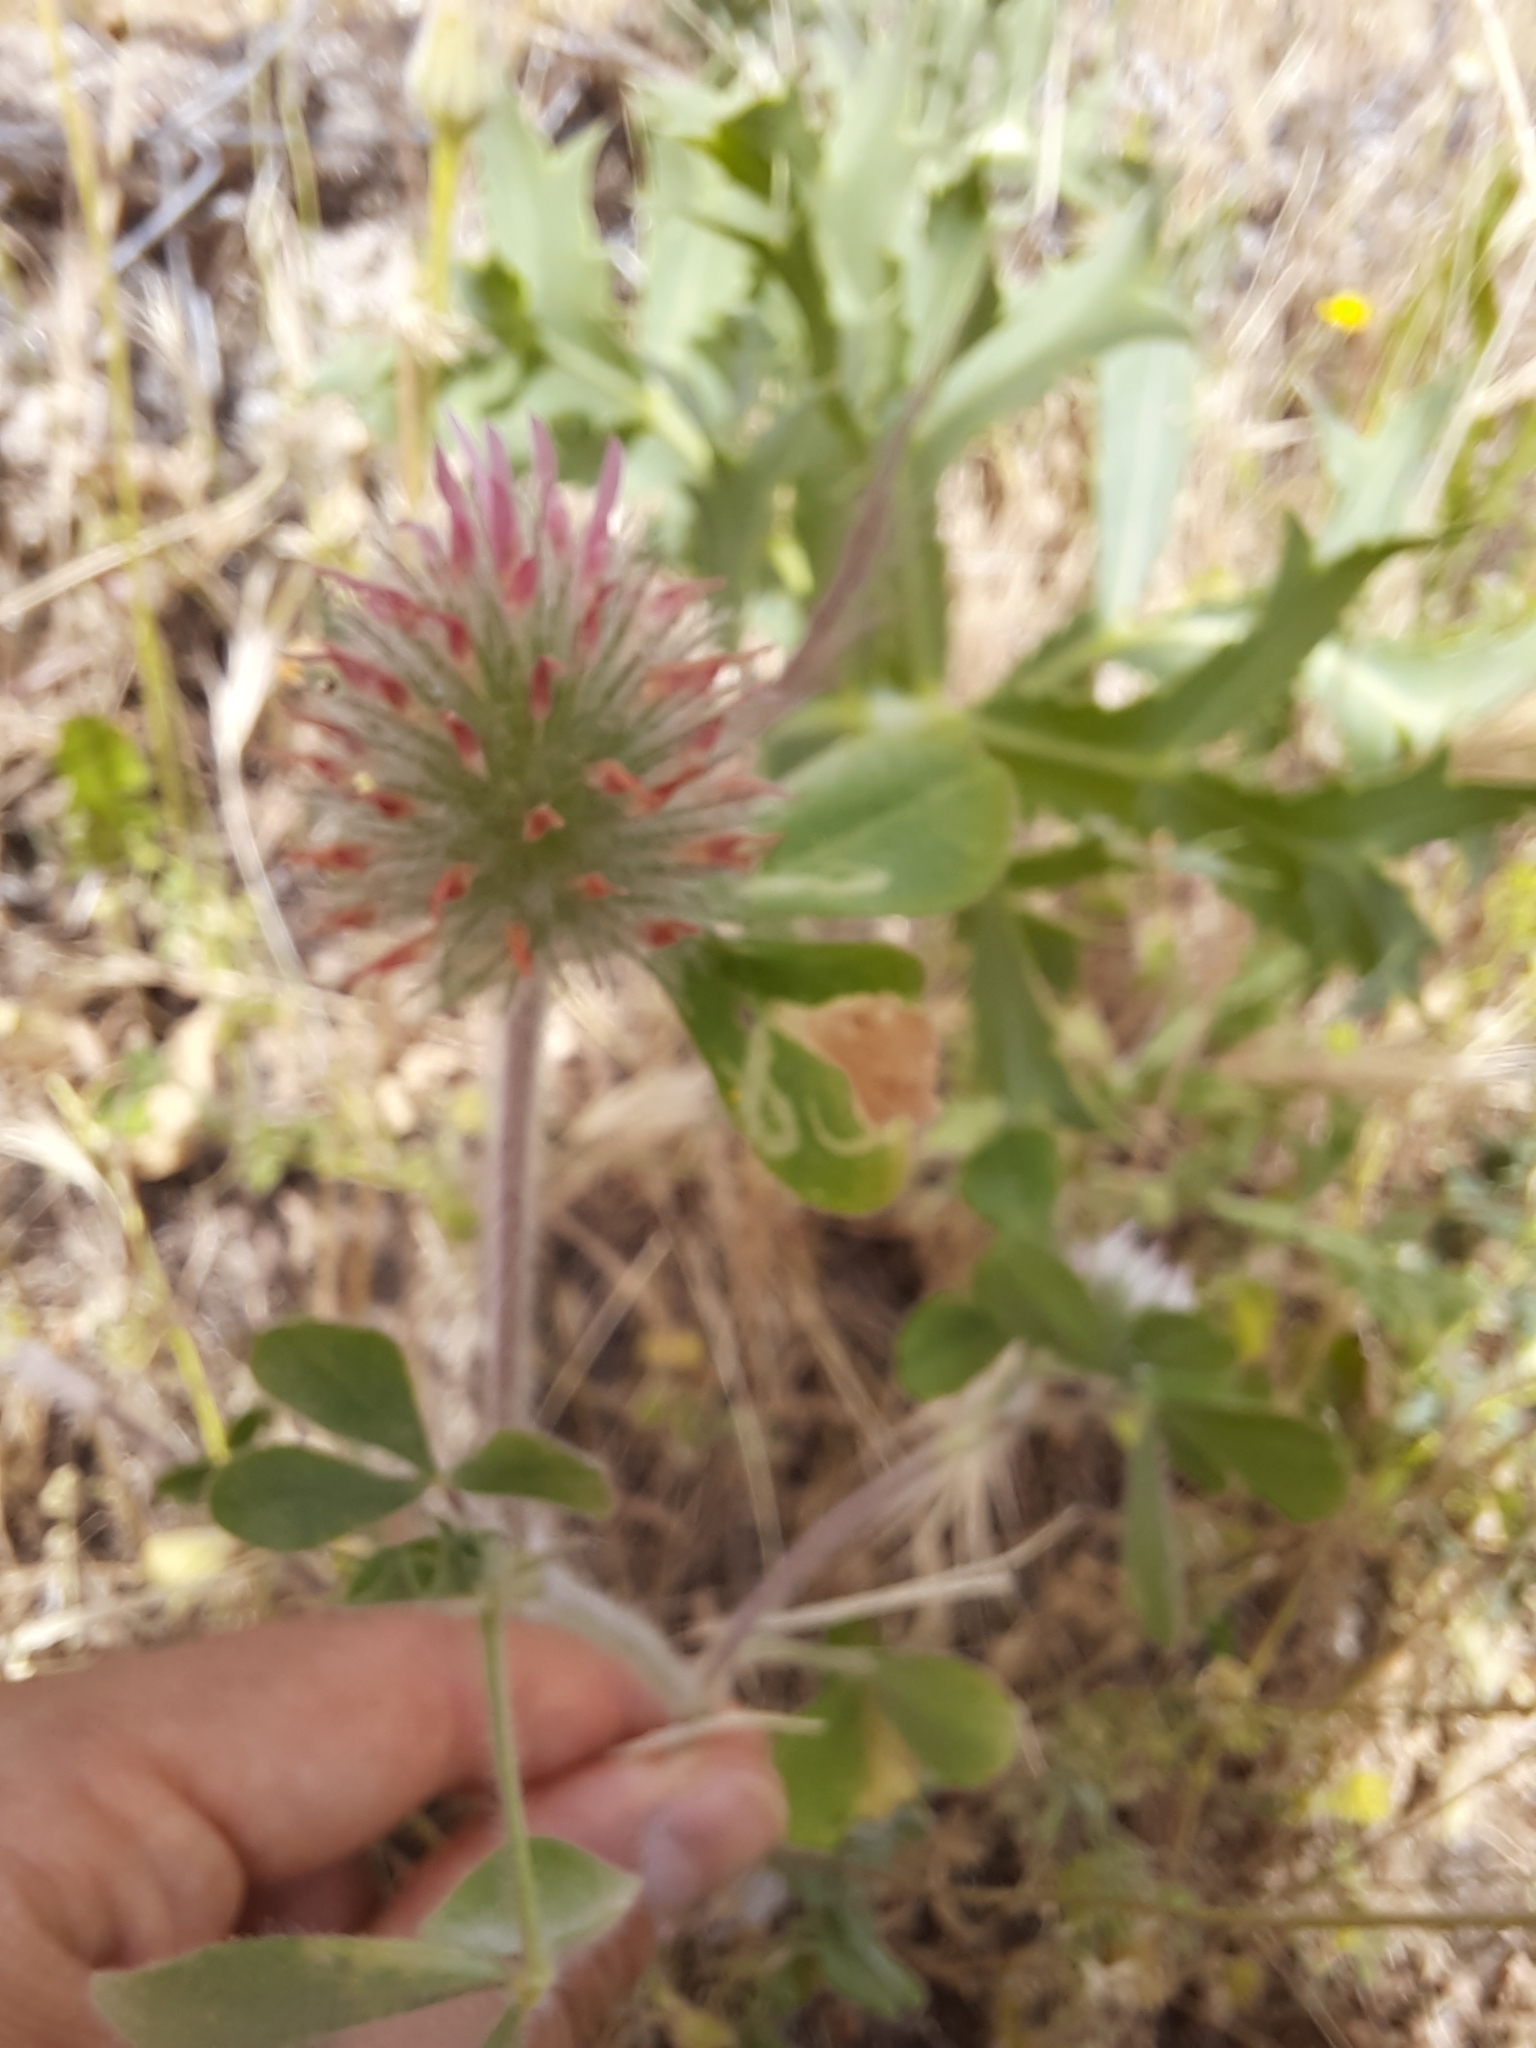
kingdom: Plantae
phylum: Tracheophyta
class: Magnoliopsida
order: Fabales
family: Fabaceae
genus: Trifolium
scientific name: Trifolium hirtum
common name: Rose clover
